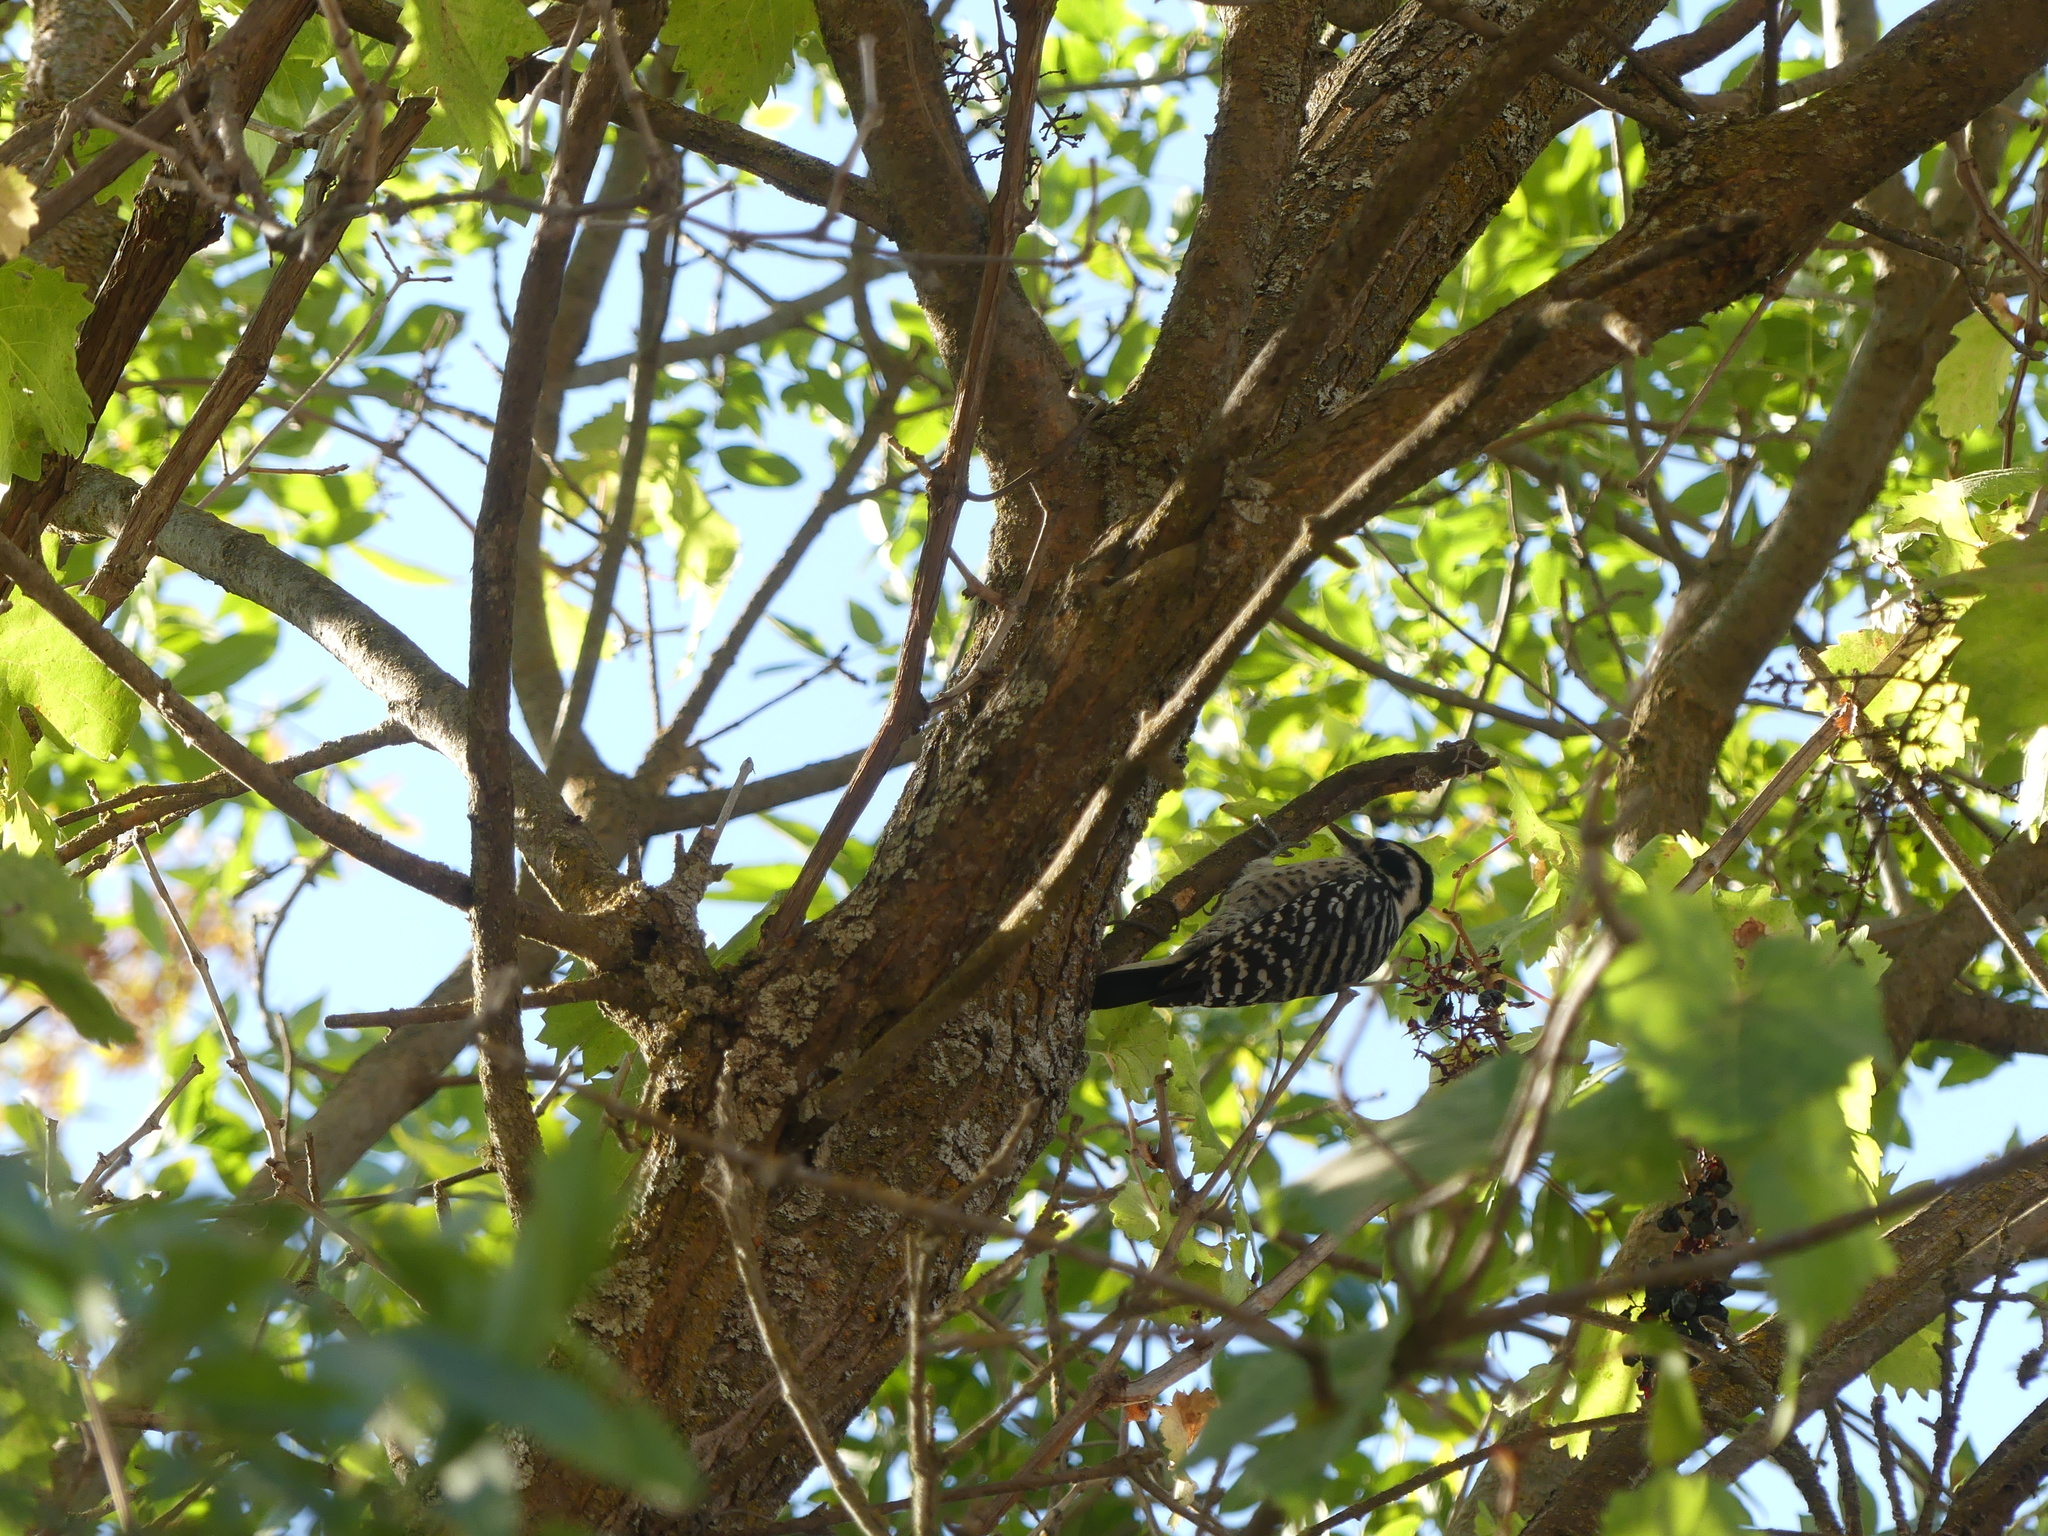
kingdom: Animalia
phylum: Chordata
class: Aves
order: Piciformes
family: Picidae
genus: Dryobates
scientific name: Dryobates nuttallii
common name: Nuttall's woodpecker
